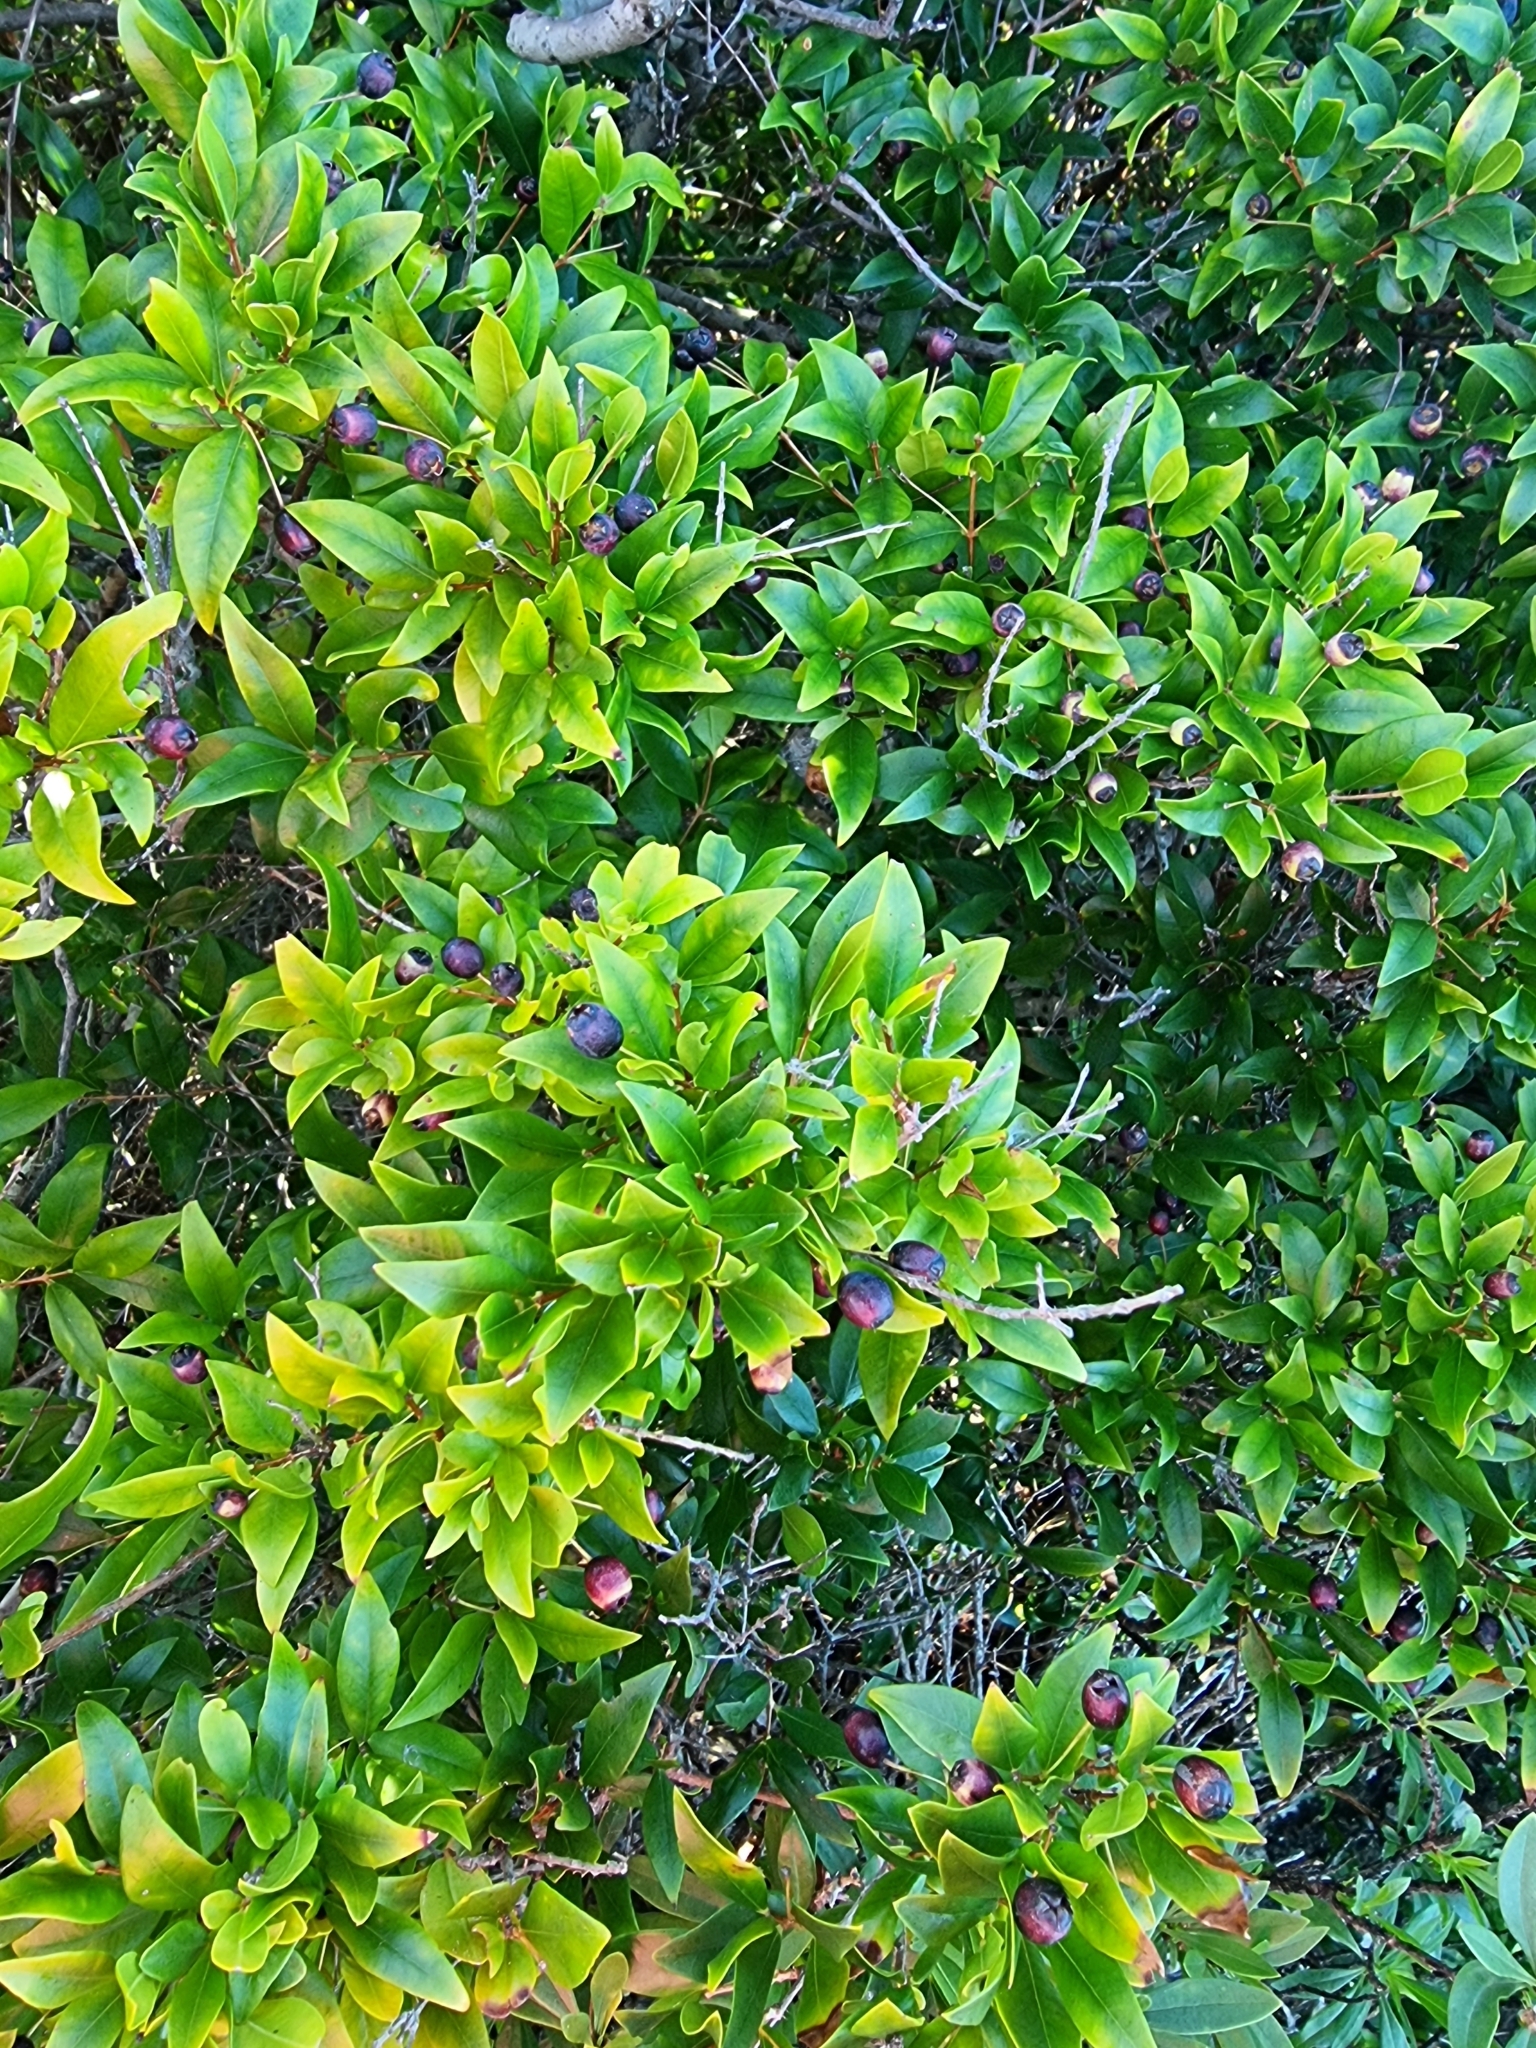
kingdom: Plantae
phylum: Tracheophyta
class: Magnoliopsida
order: Myrtales
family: Myrtaceae
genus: Myrtus
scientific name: Myrtus communis
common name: Myrtle
